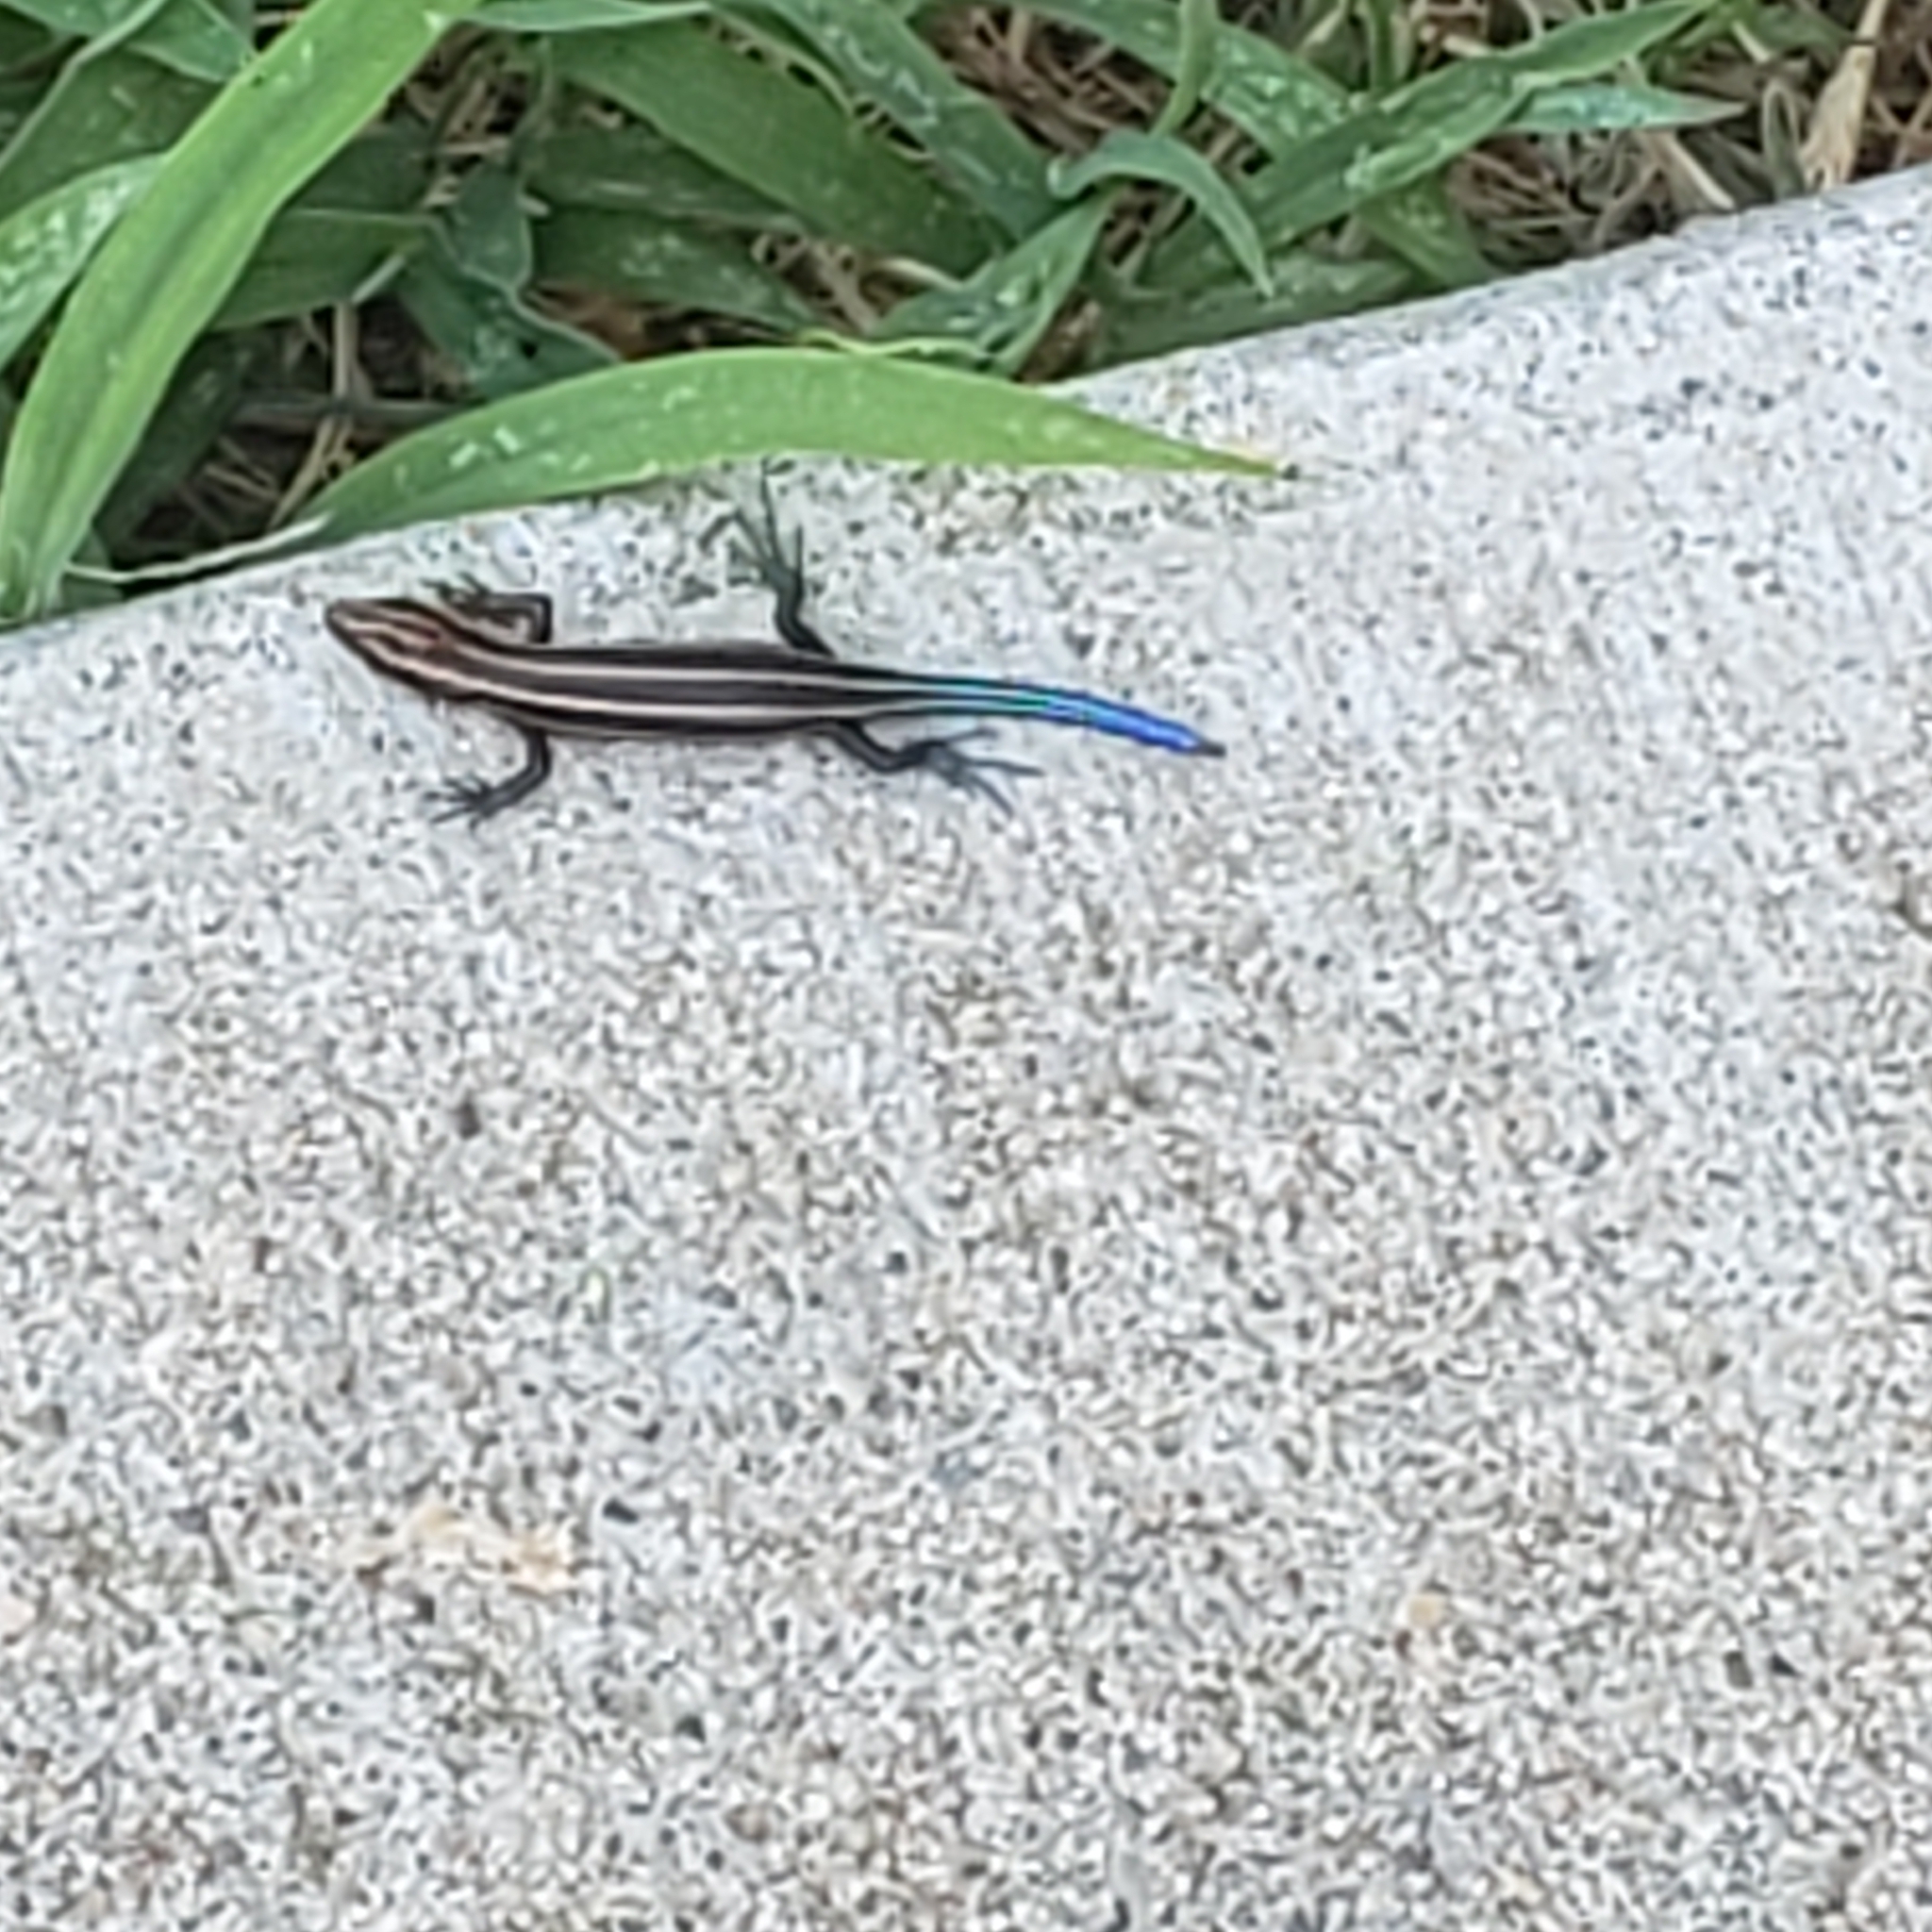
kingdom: Animalia
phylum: Chordata
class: Squamata
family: Scincidae
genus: Plestiodon
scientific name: Plestiodon fasciatus
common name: Five-lined skink
